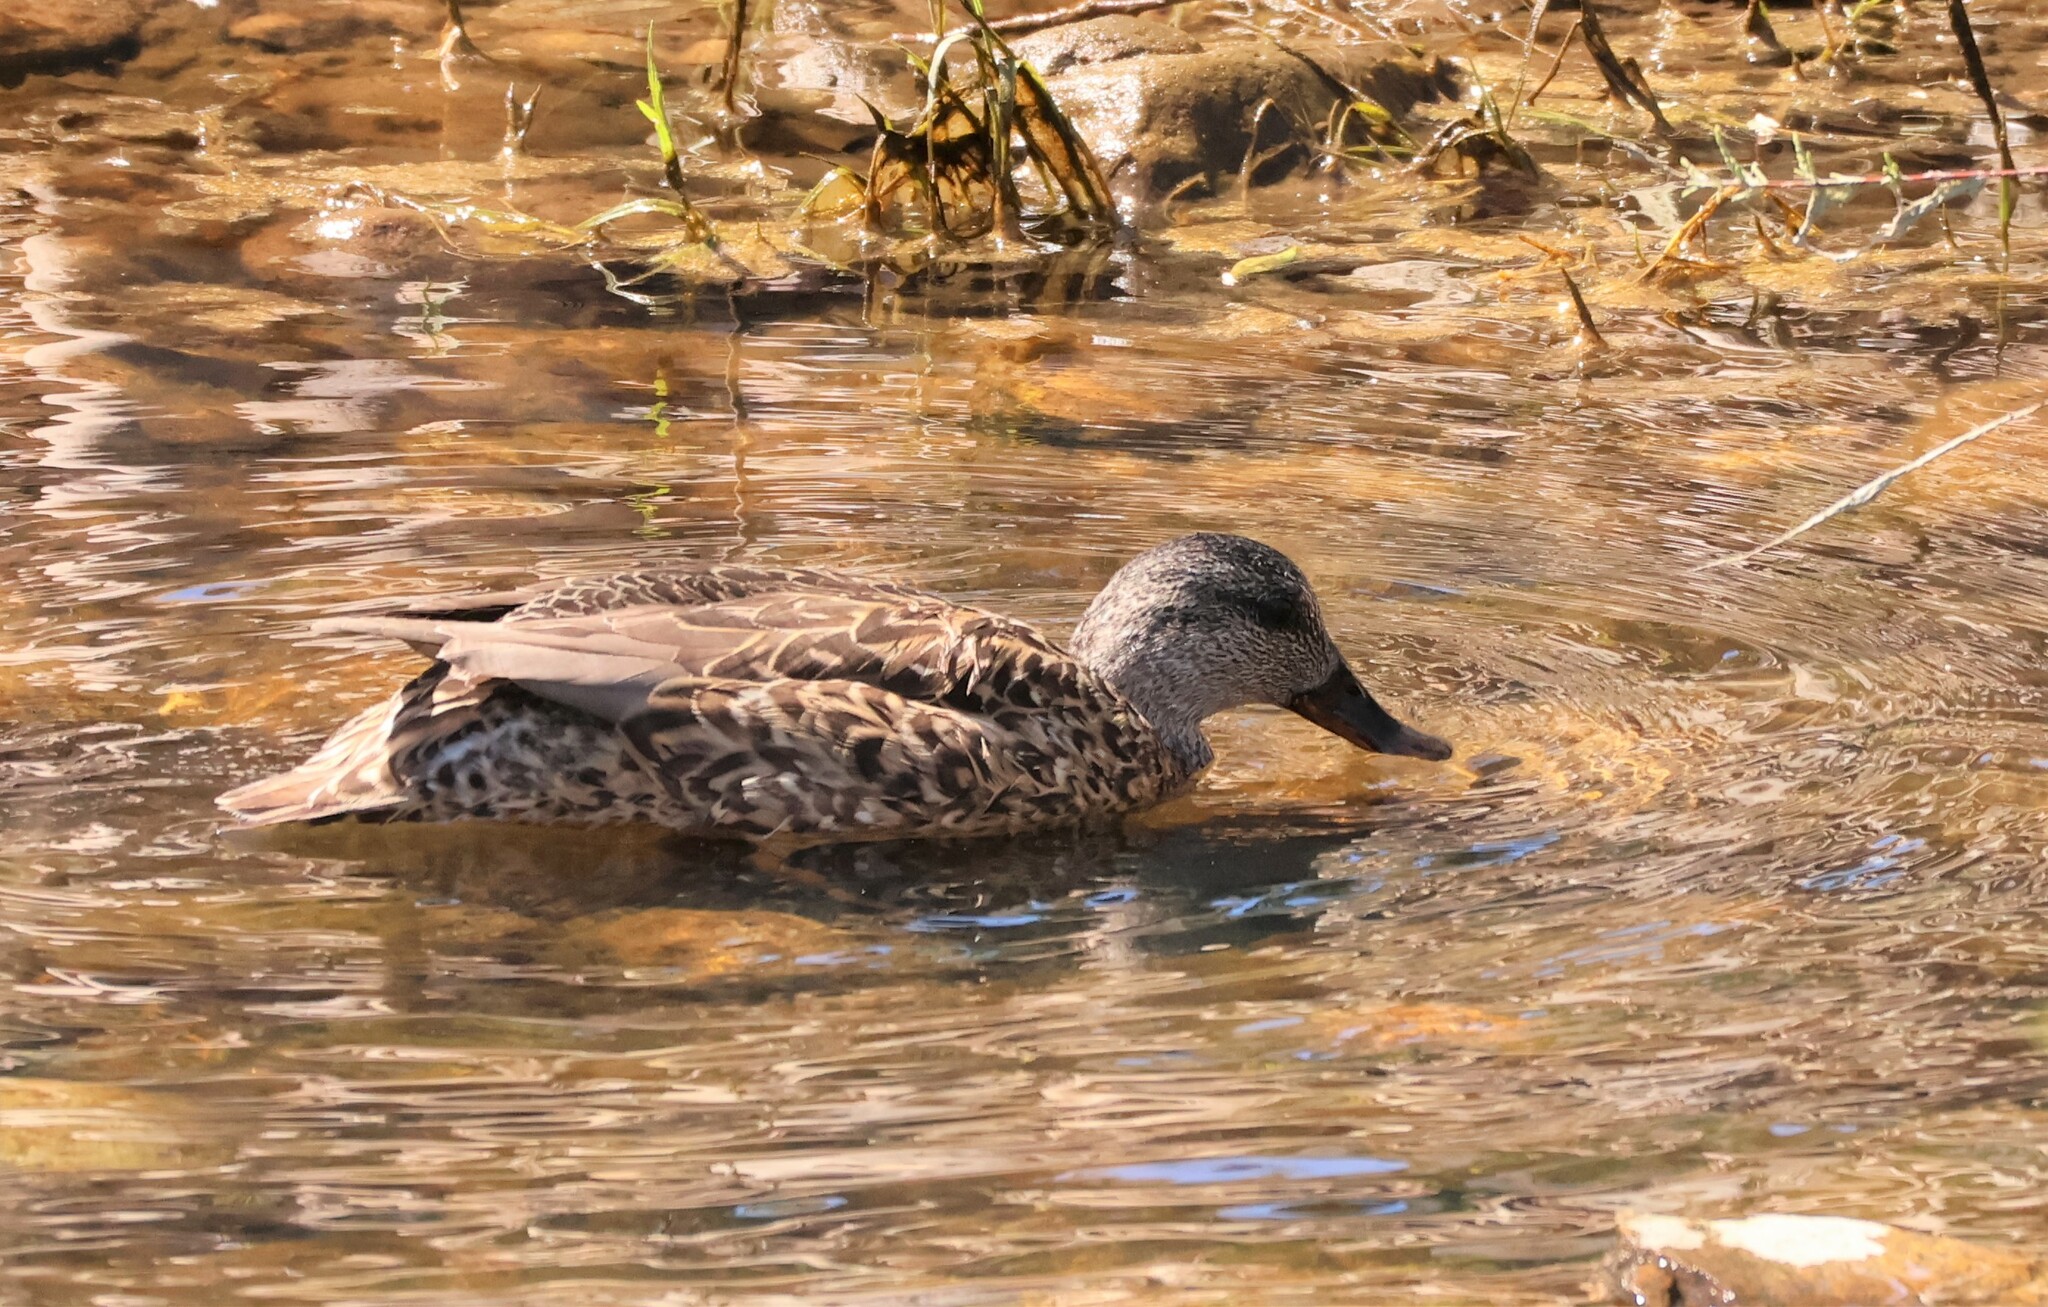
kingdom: Animalia
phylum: Chordata
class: Aves
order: Anseriformes
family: Anatidae
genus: Mareca
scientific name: Mareca strepera
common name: Gadwall
